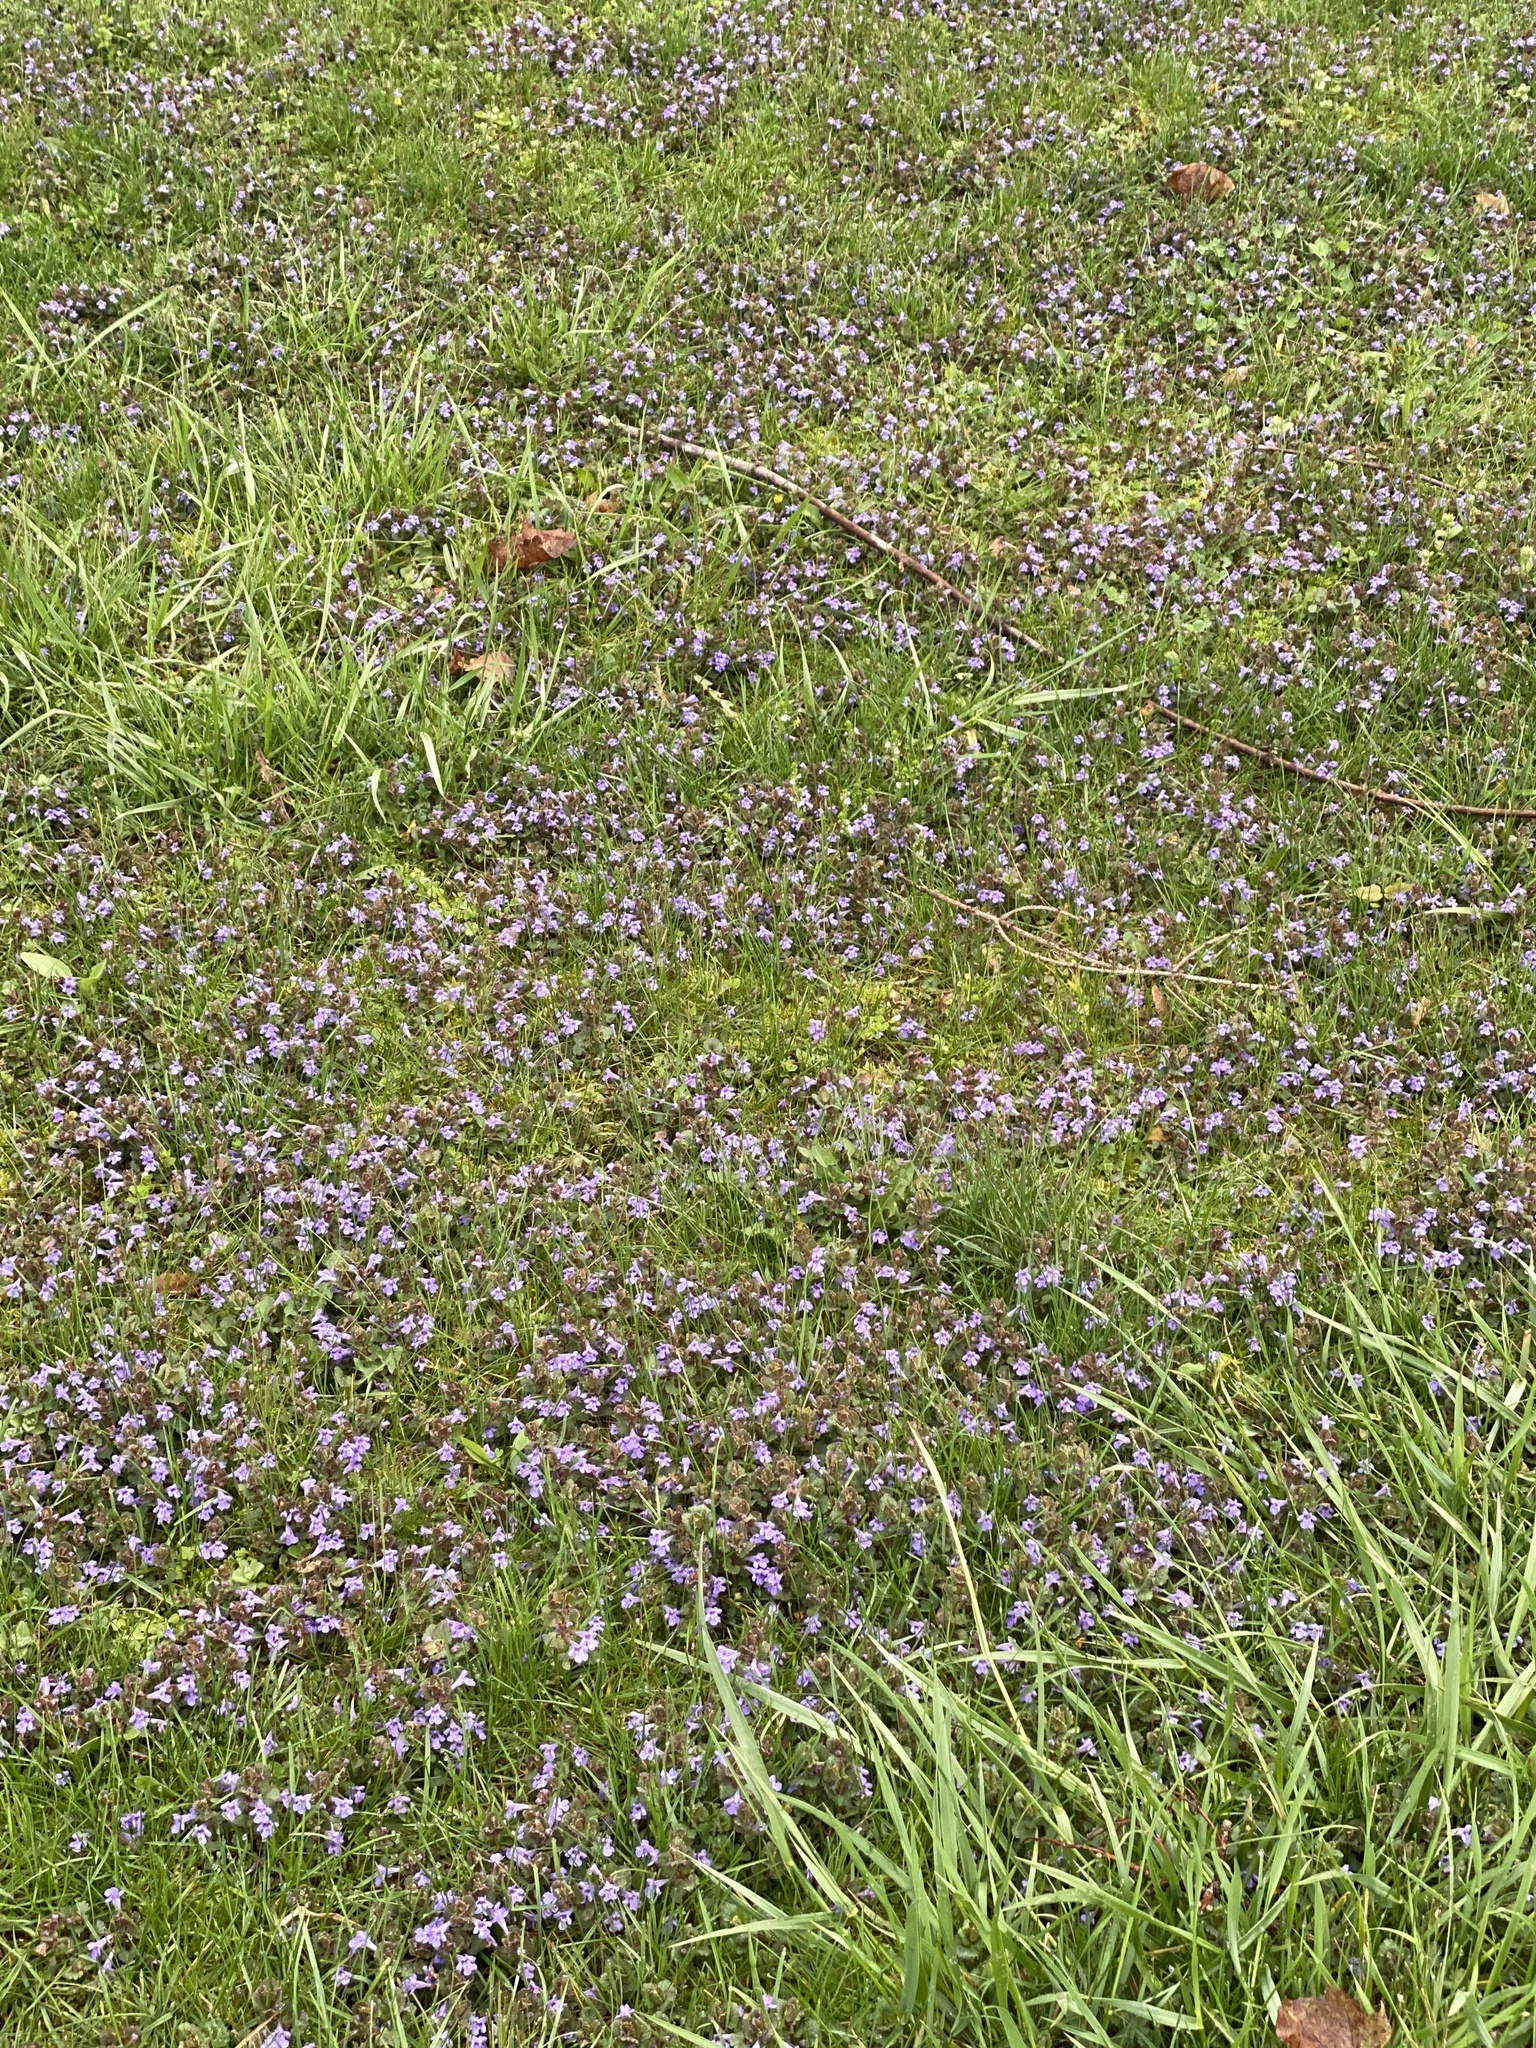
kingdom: Plantae
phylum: Tracheophyta
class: Magnoliopsida
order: Lamiales
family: Lamiaceae
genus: Glechoma
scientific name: Glechoma hederacea
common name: Ground ivy
